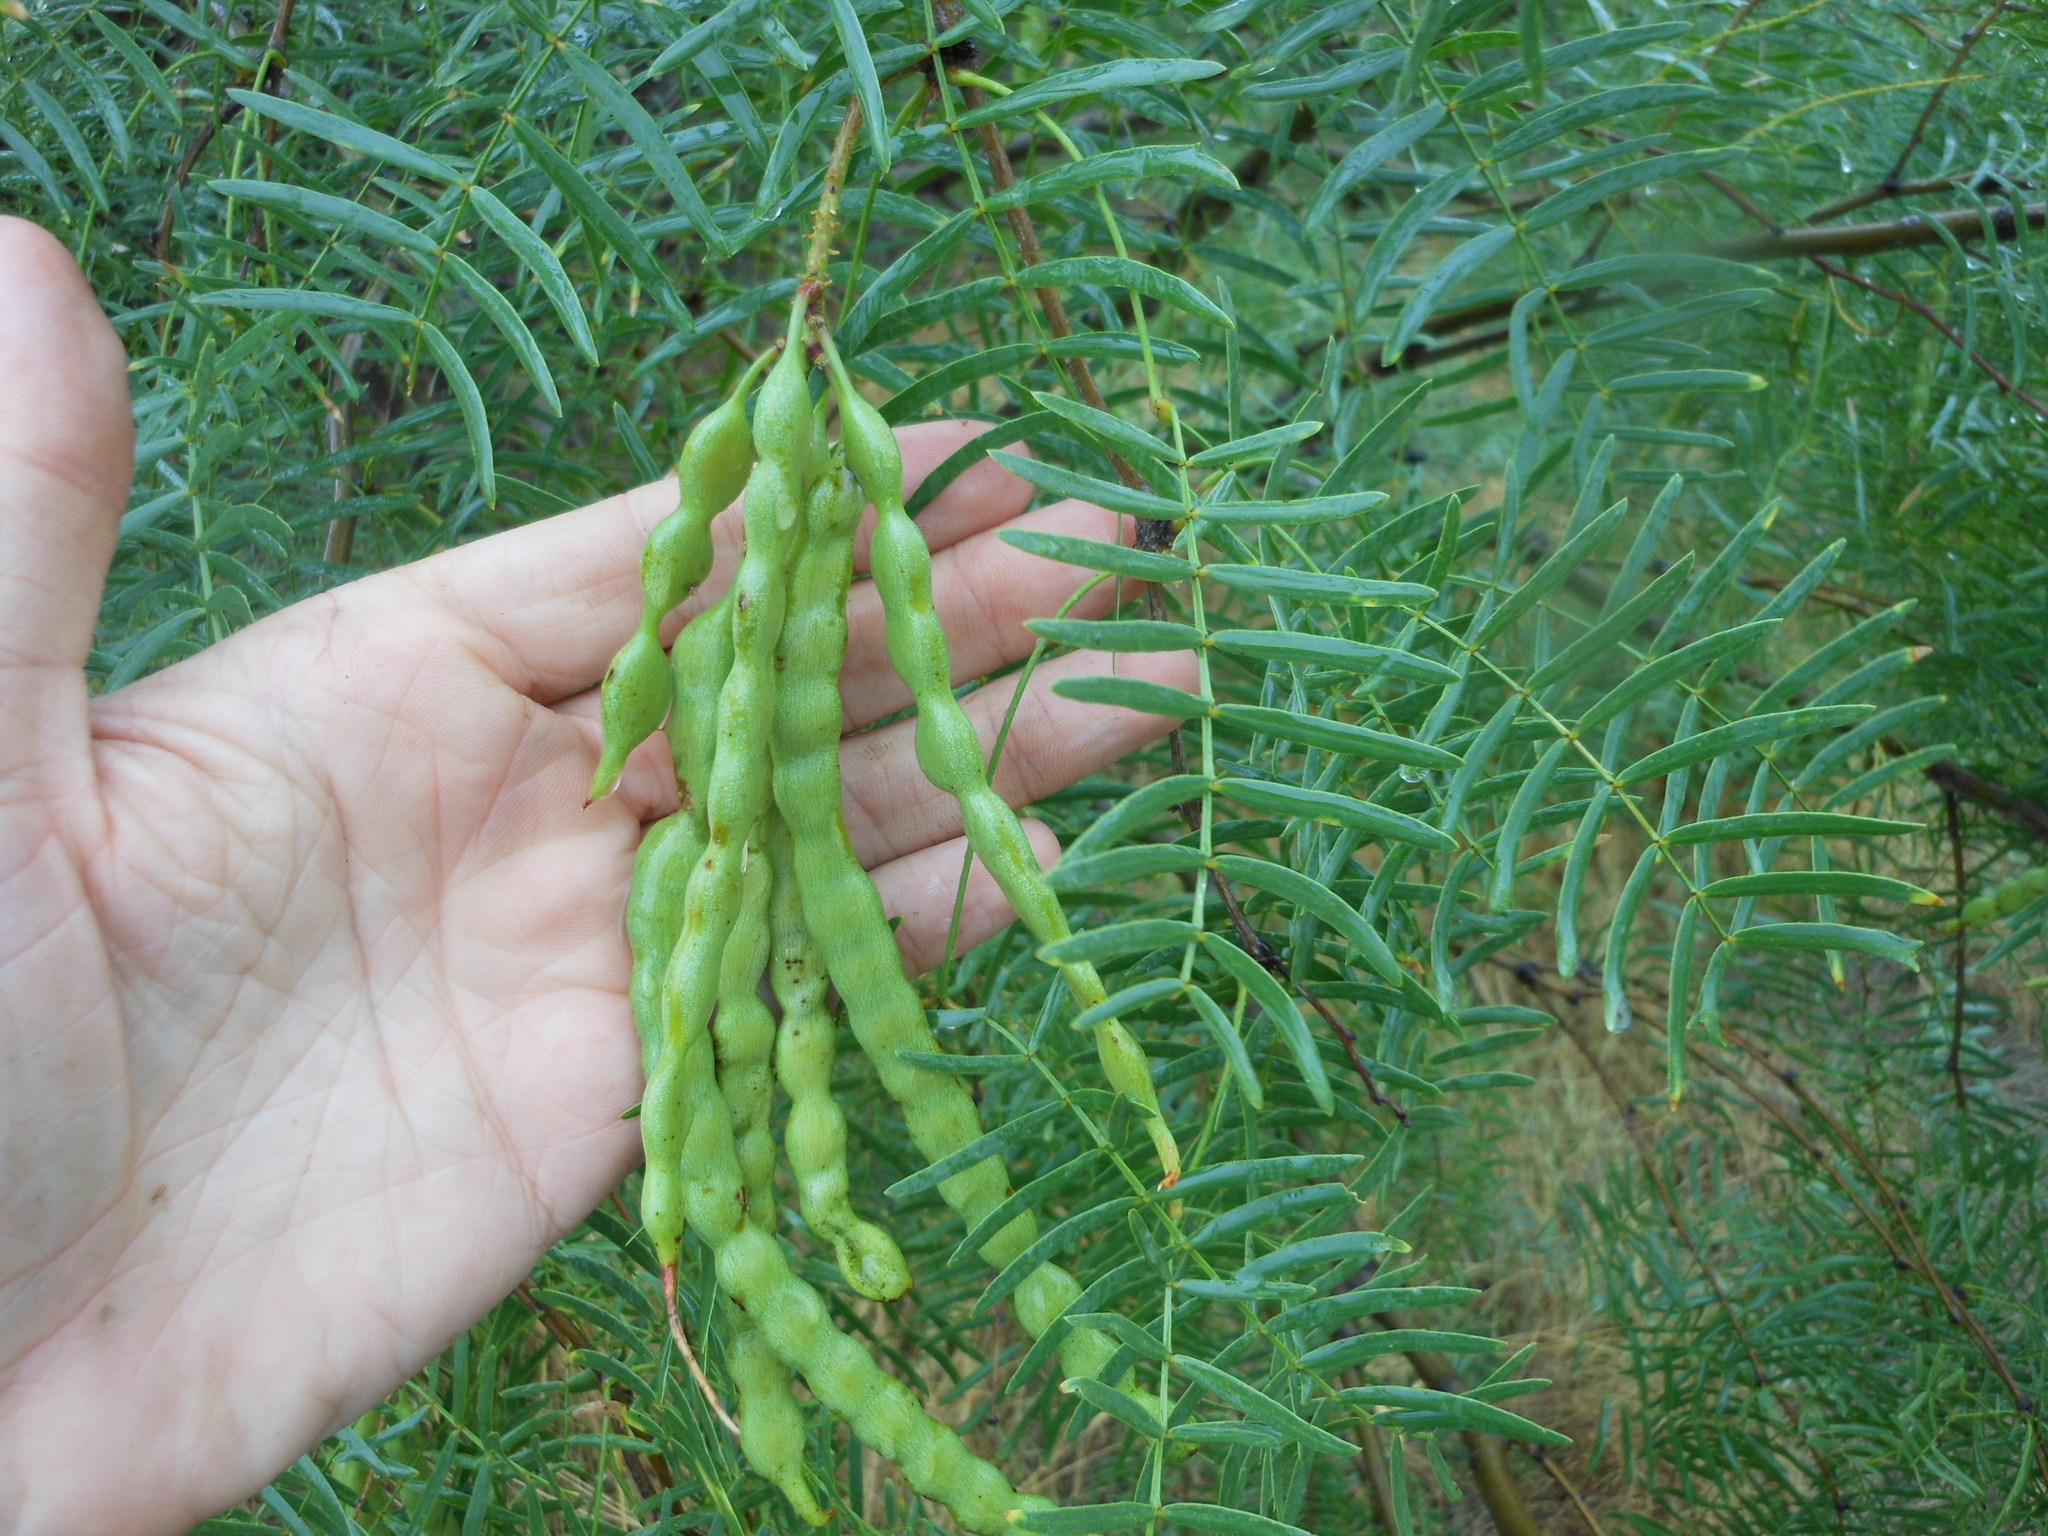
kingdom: Plantae
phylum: Tracheophyta
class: Magnoliopsida
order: Fabales
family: Fabaceae
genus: Prosopis
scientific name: Prosopis glandulosa
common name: Honey mesquite
